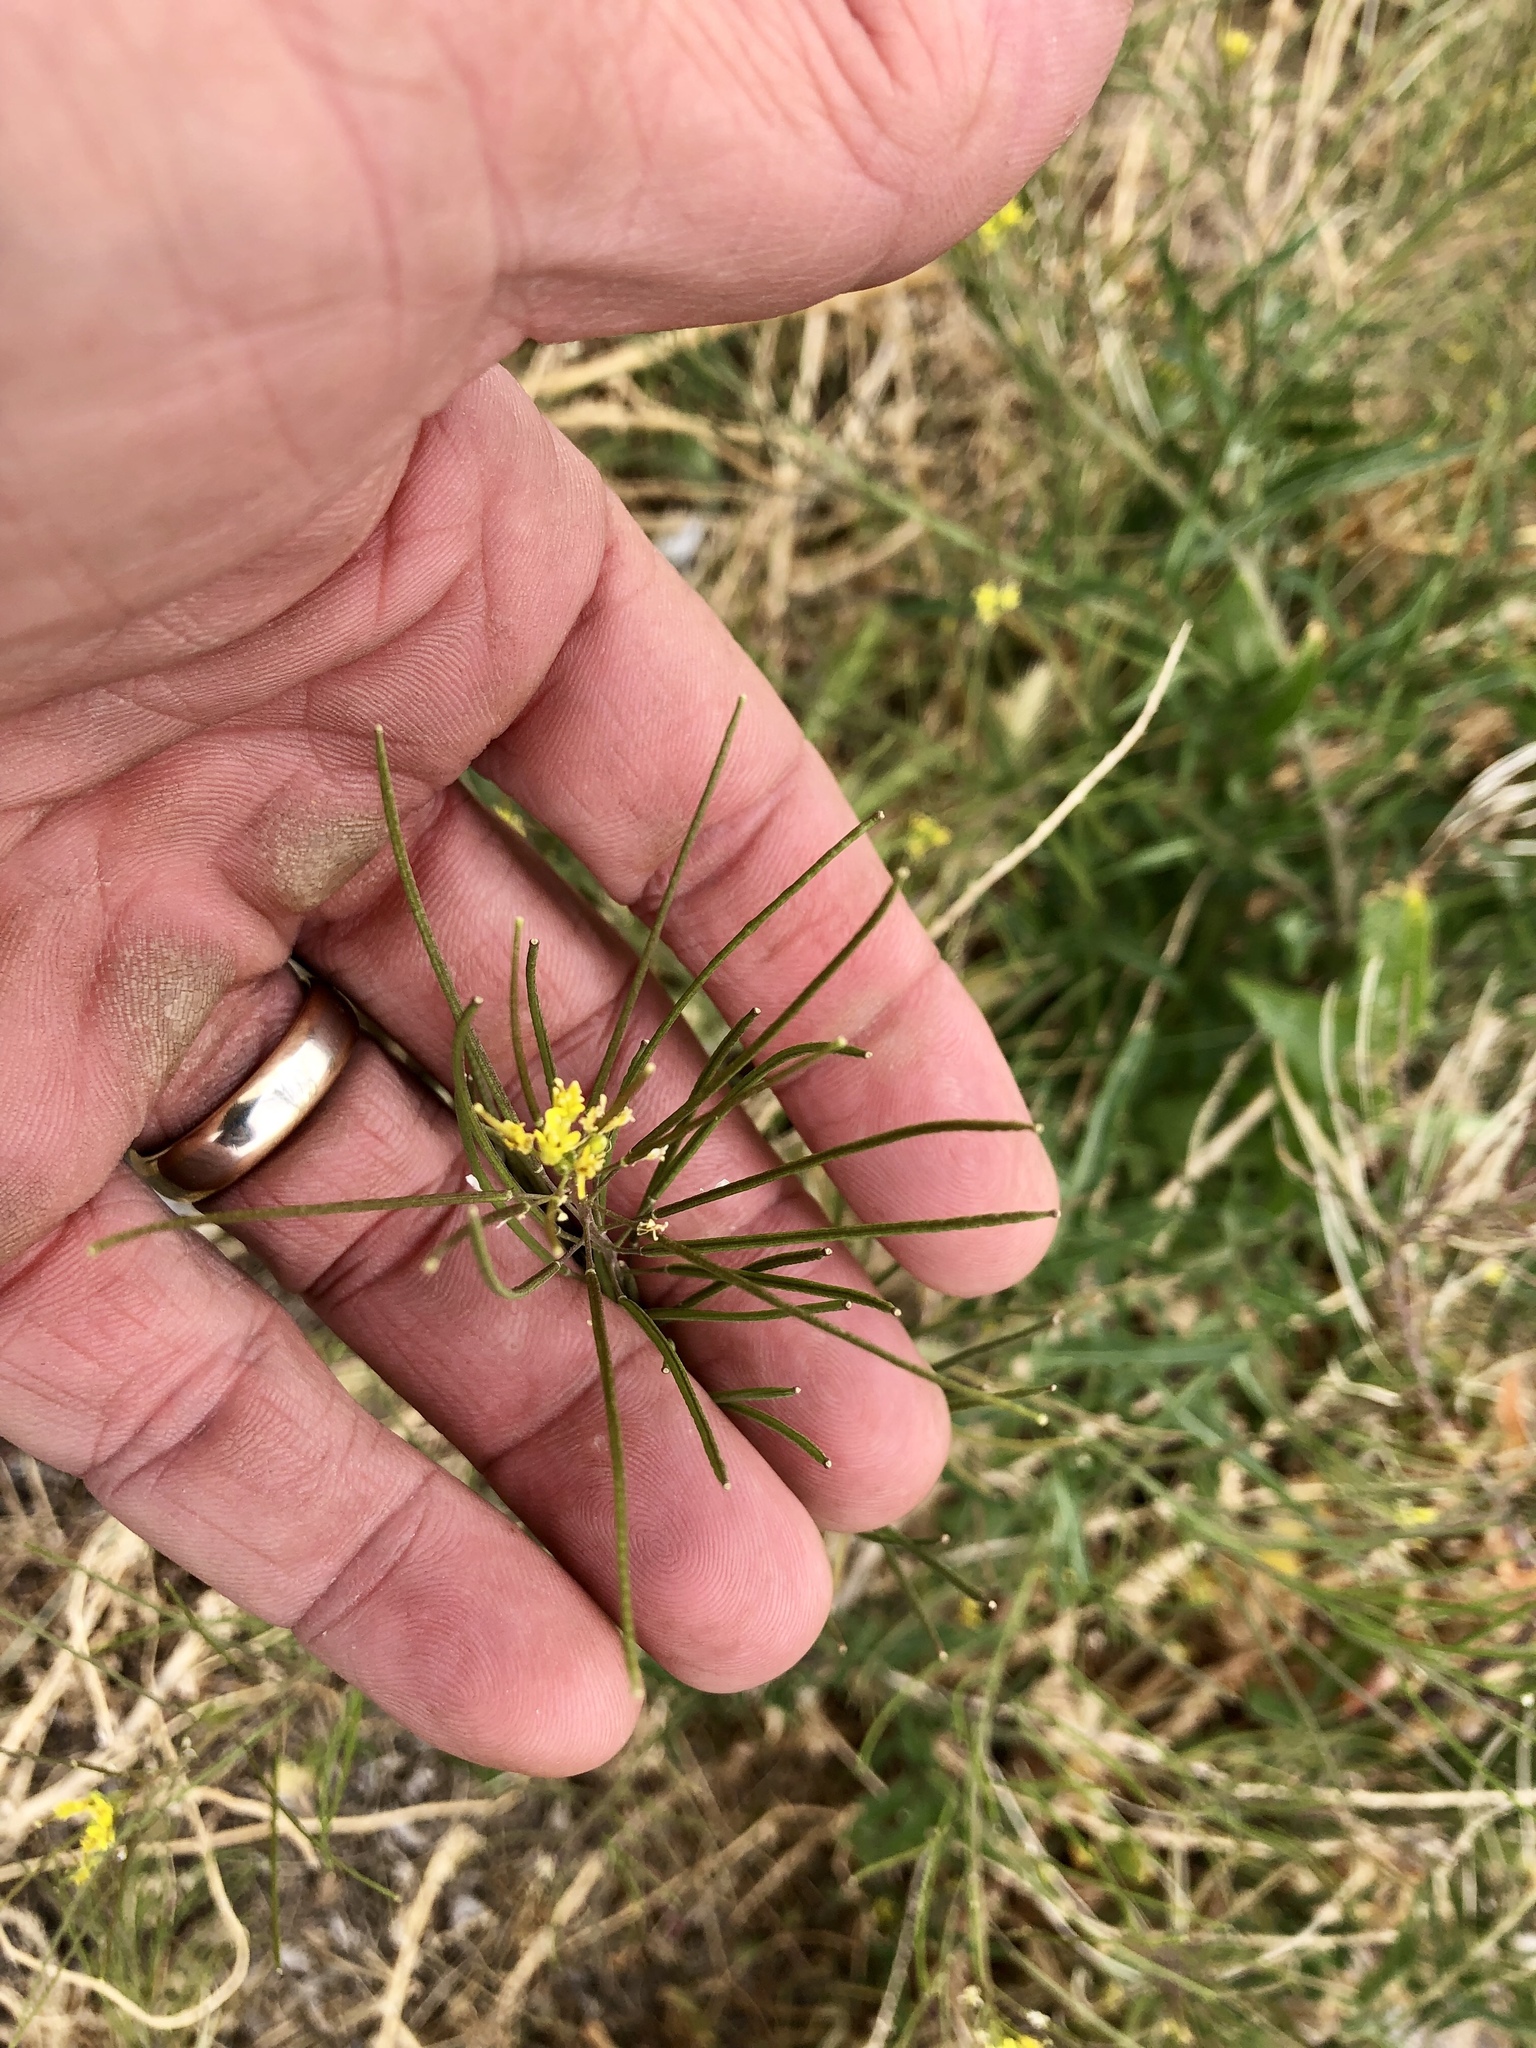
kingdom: Plantae
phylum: Tracheophyta
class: Magnoliopsida
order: Brassicales
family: Brassicaceae
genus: Sisymbrium
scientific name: Sisymbrium irio
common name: London rocket
